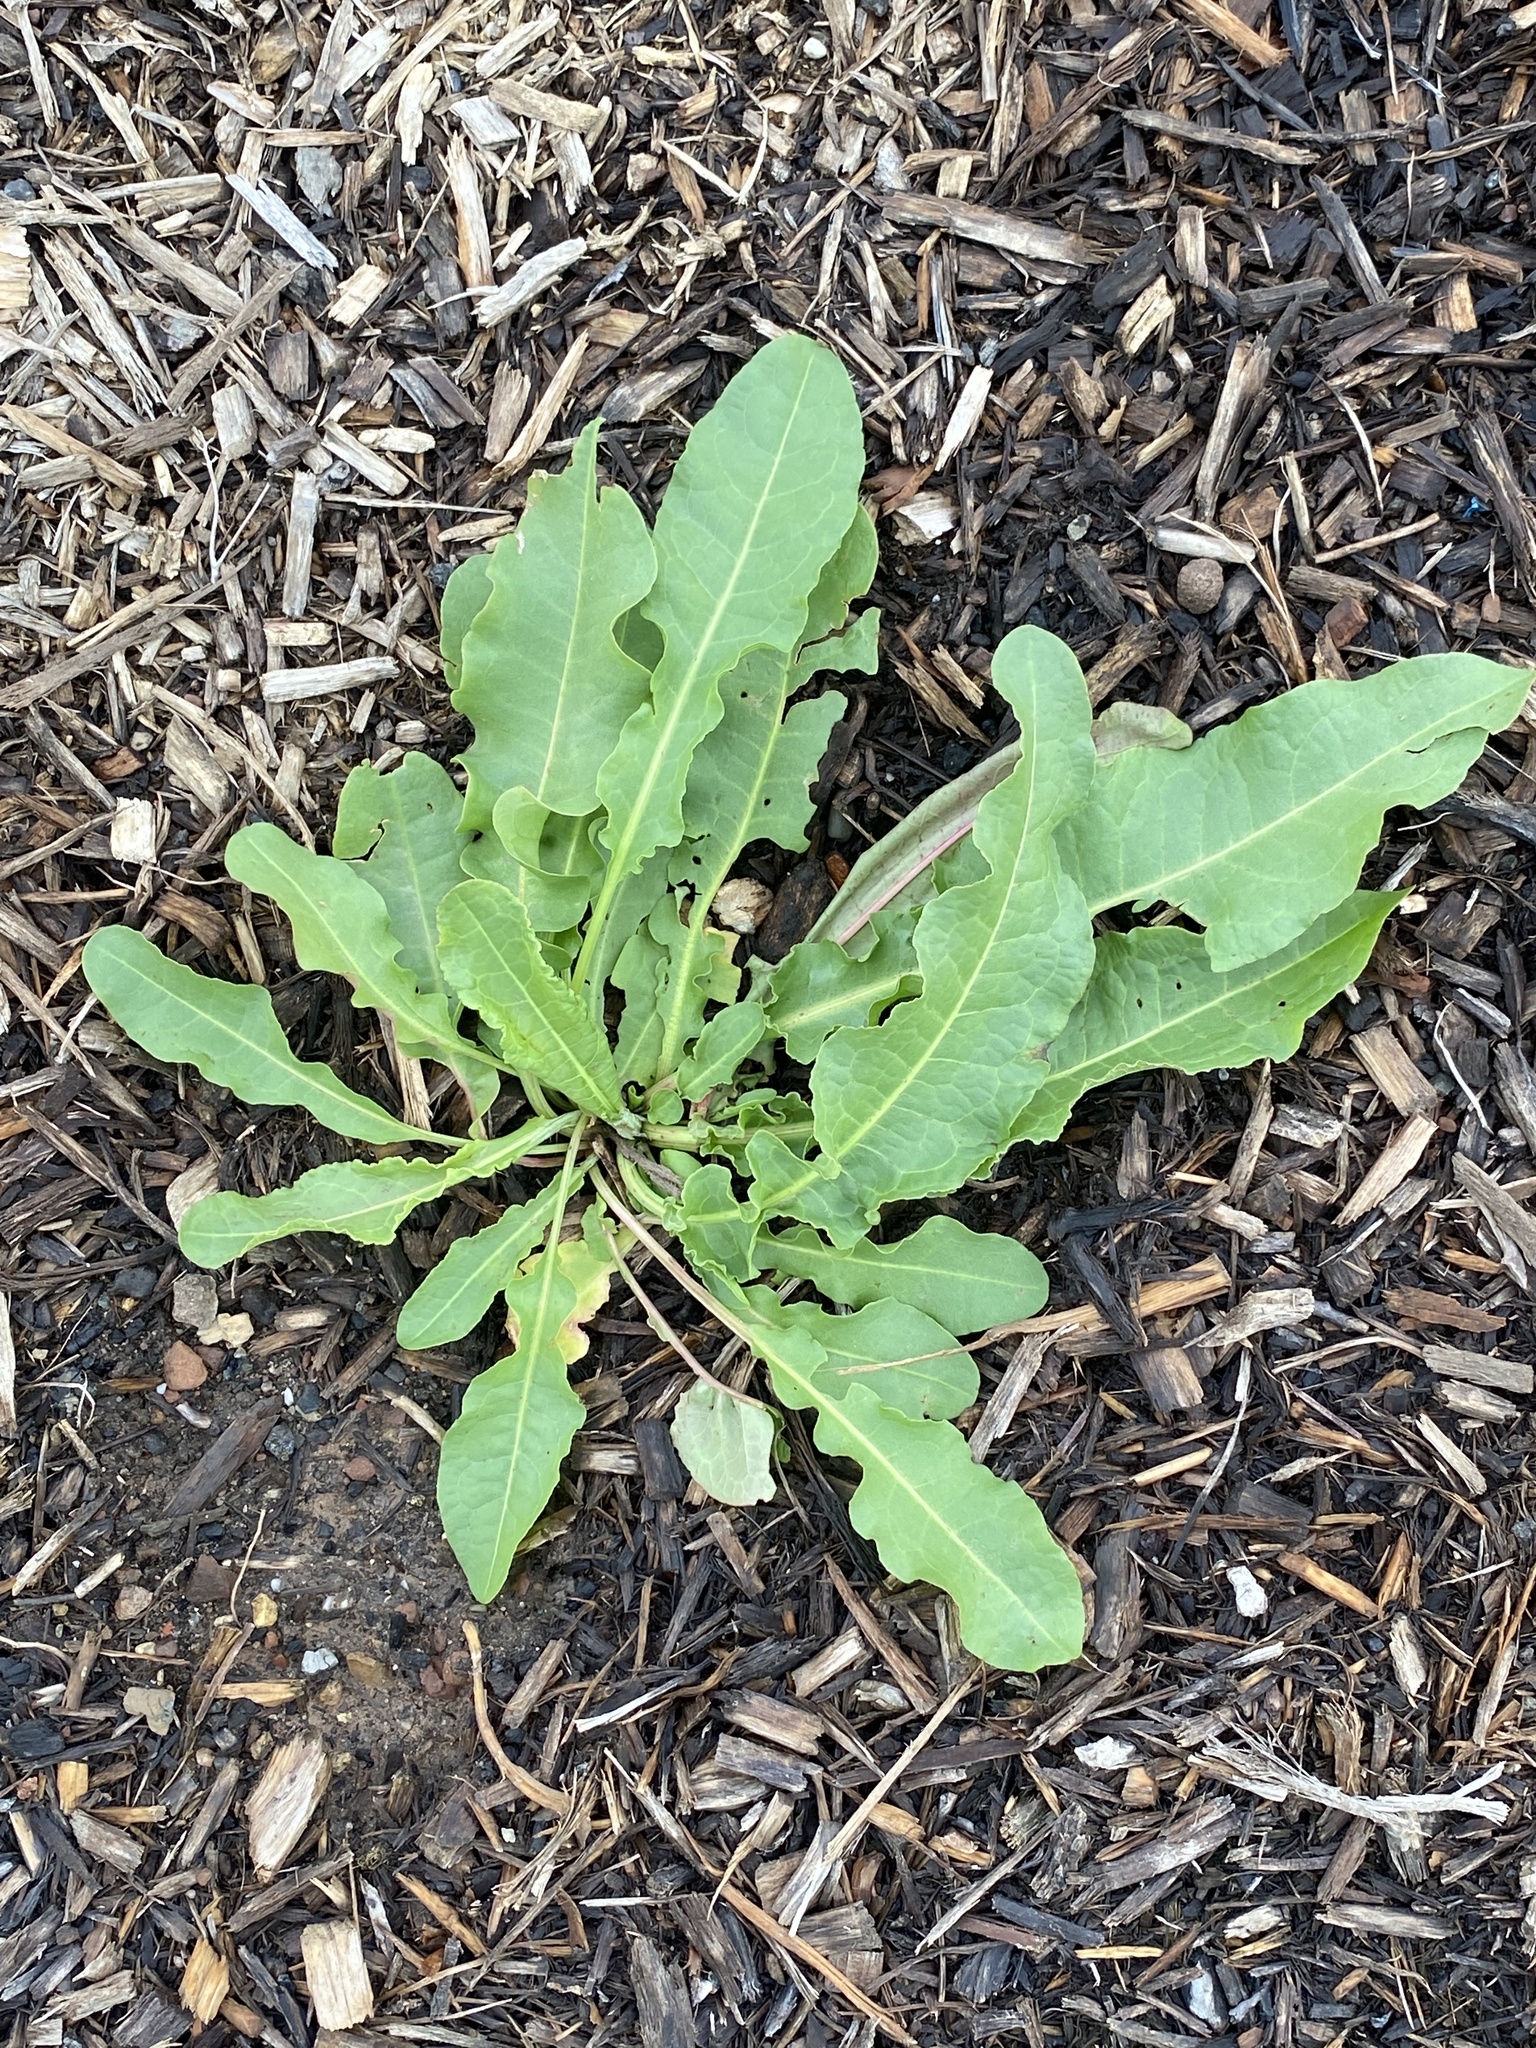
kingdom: Plantae
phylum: Tracheophyta
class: Magnoliopsida
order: Caryophyllales
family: Polygonaceae
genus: Rumex
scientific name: Rumex crispus
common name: Curled dock
